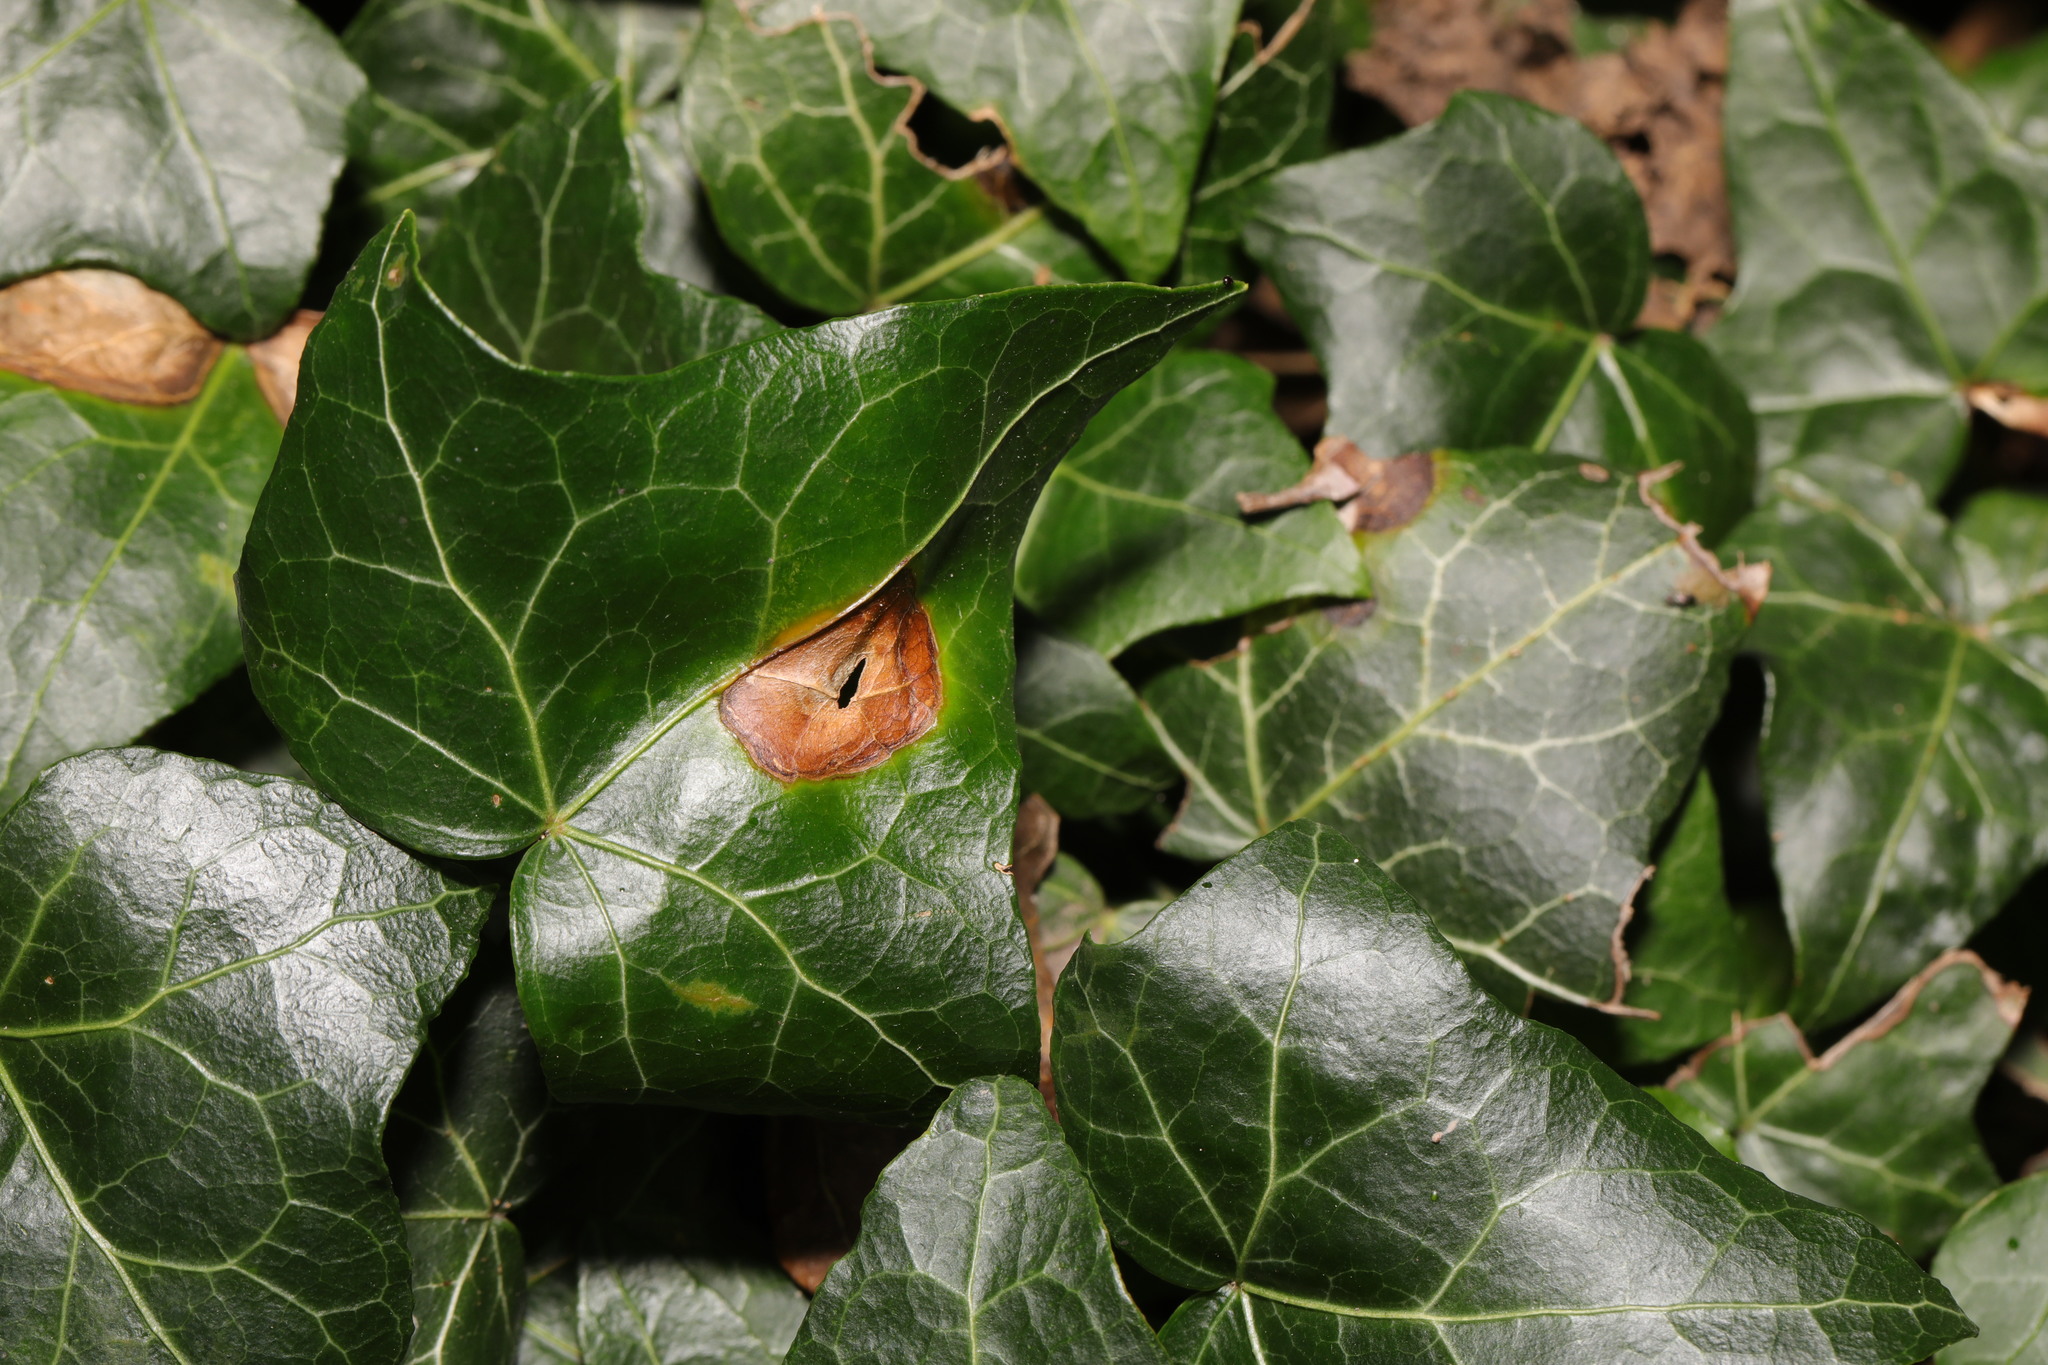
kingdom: Plantae
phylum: Tracheophyta
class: Magnoliopsida
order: Apiales
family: Araliaceae
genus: Hedera
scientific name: Hedera helix
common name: Ivy
